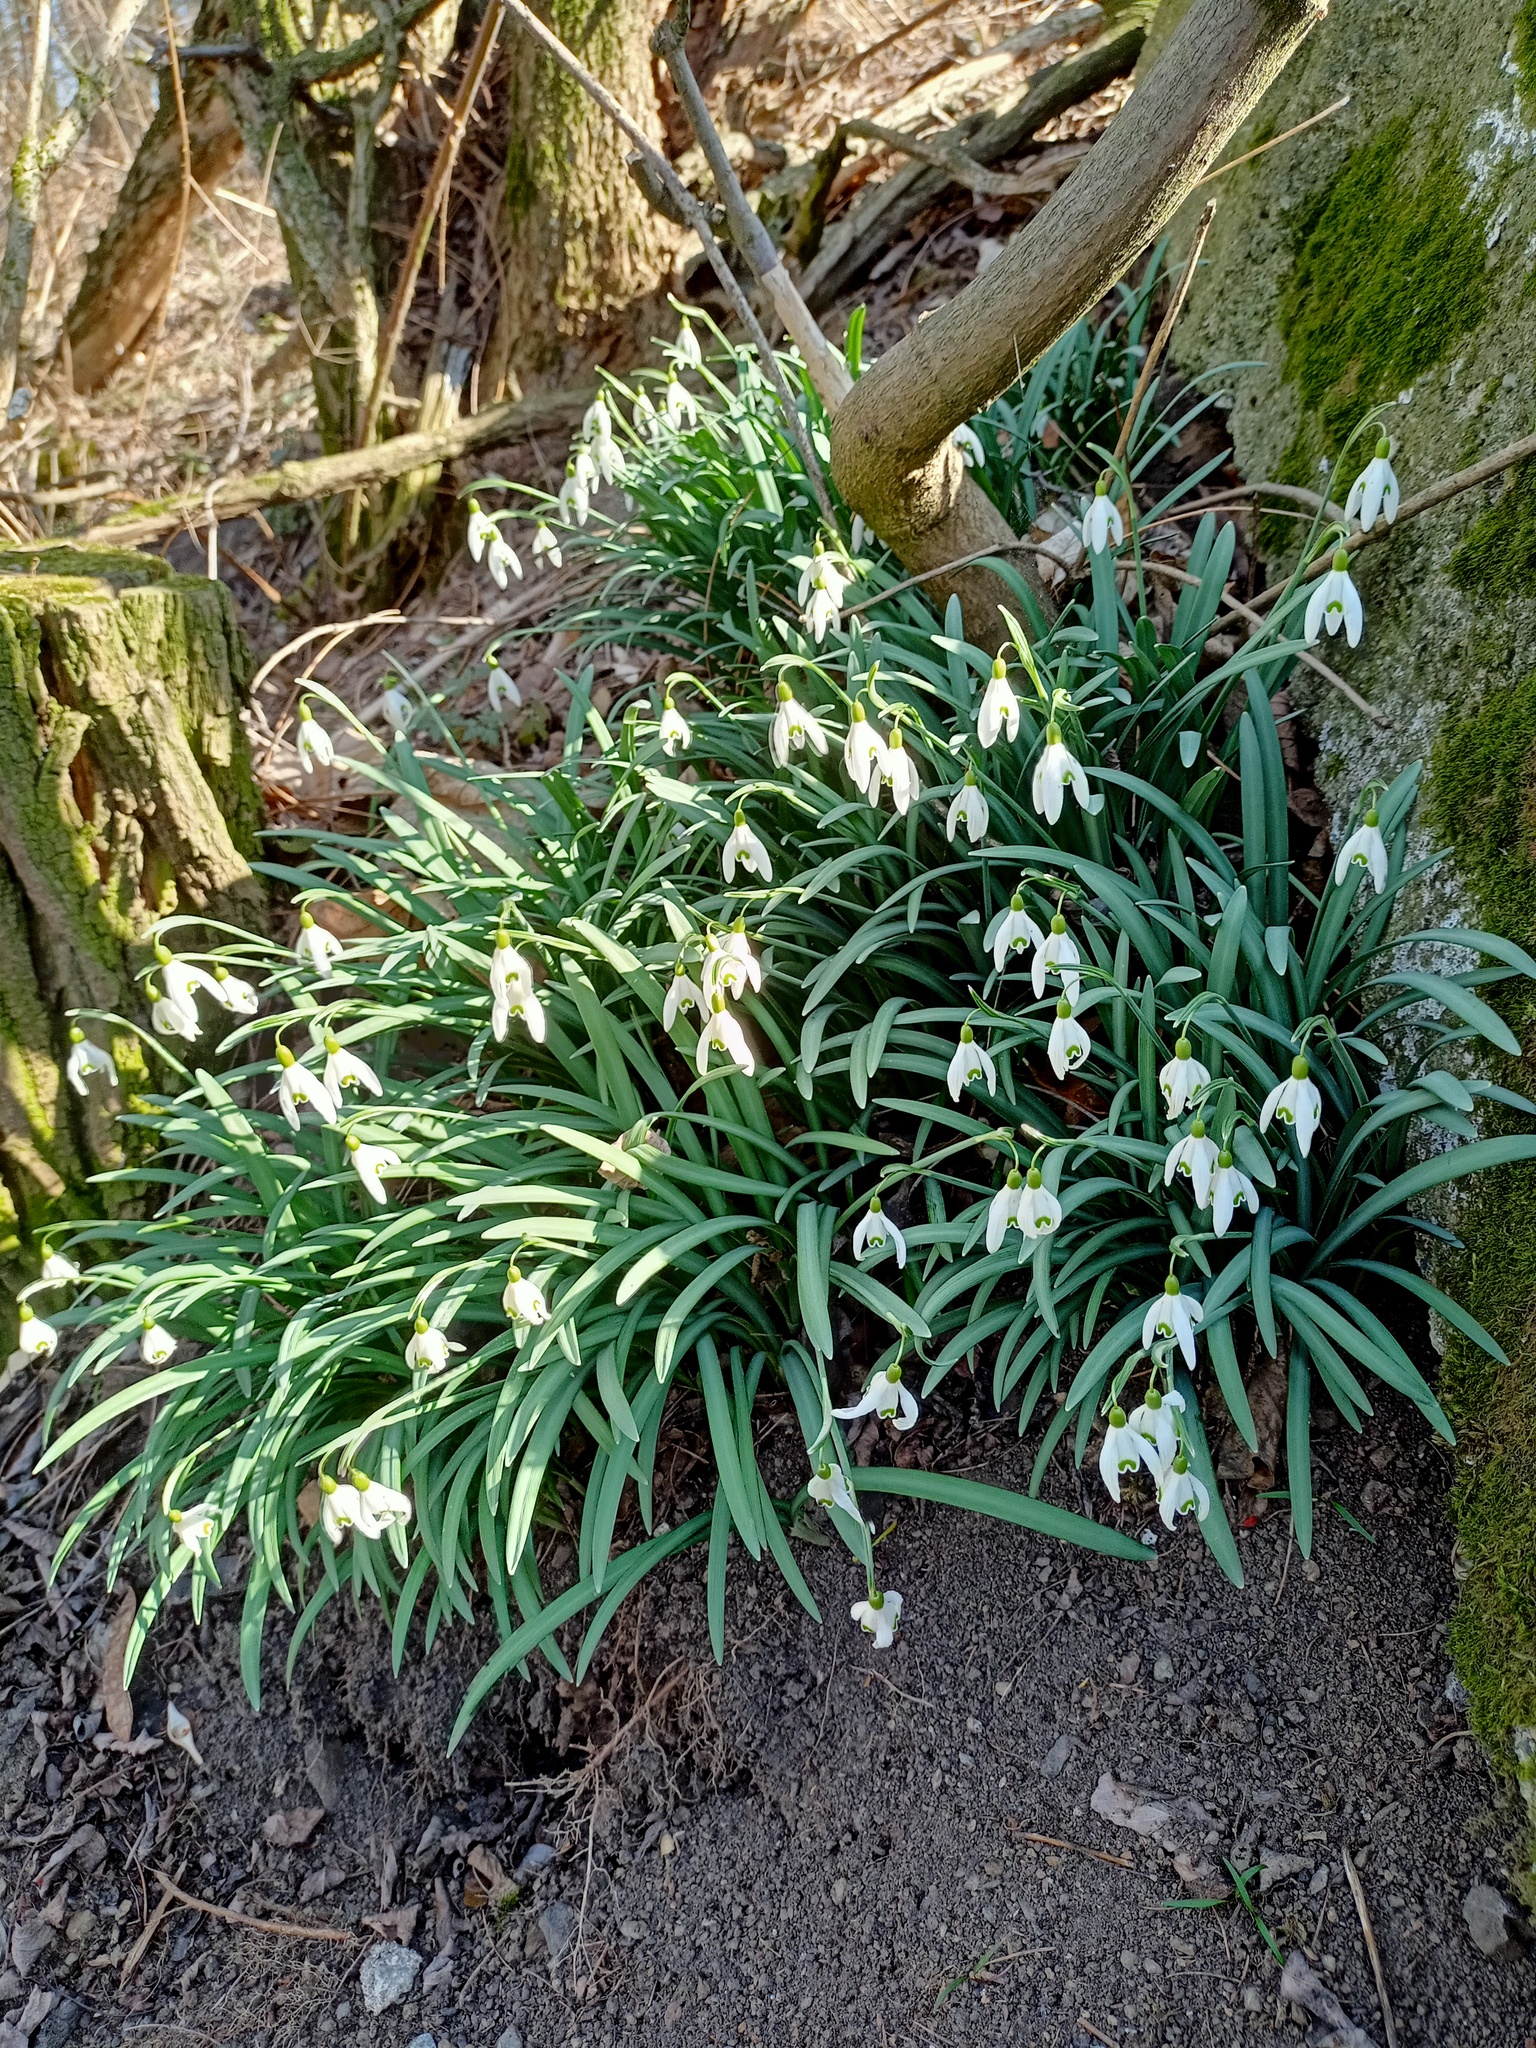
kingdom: Plantae
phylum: Tracheophyta
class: Liliopsida
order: Asparagales
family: Amaryllidaceae
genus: Galanthus
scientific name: Galanthus nivalis
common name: Snowdrop
